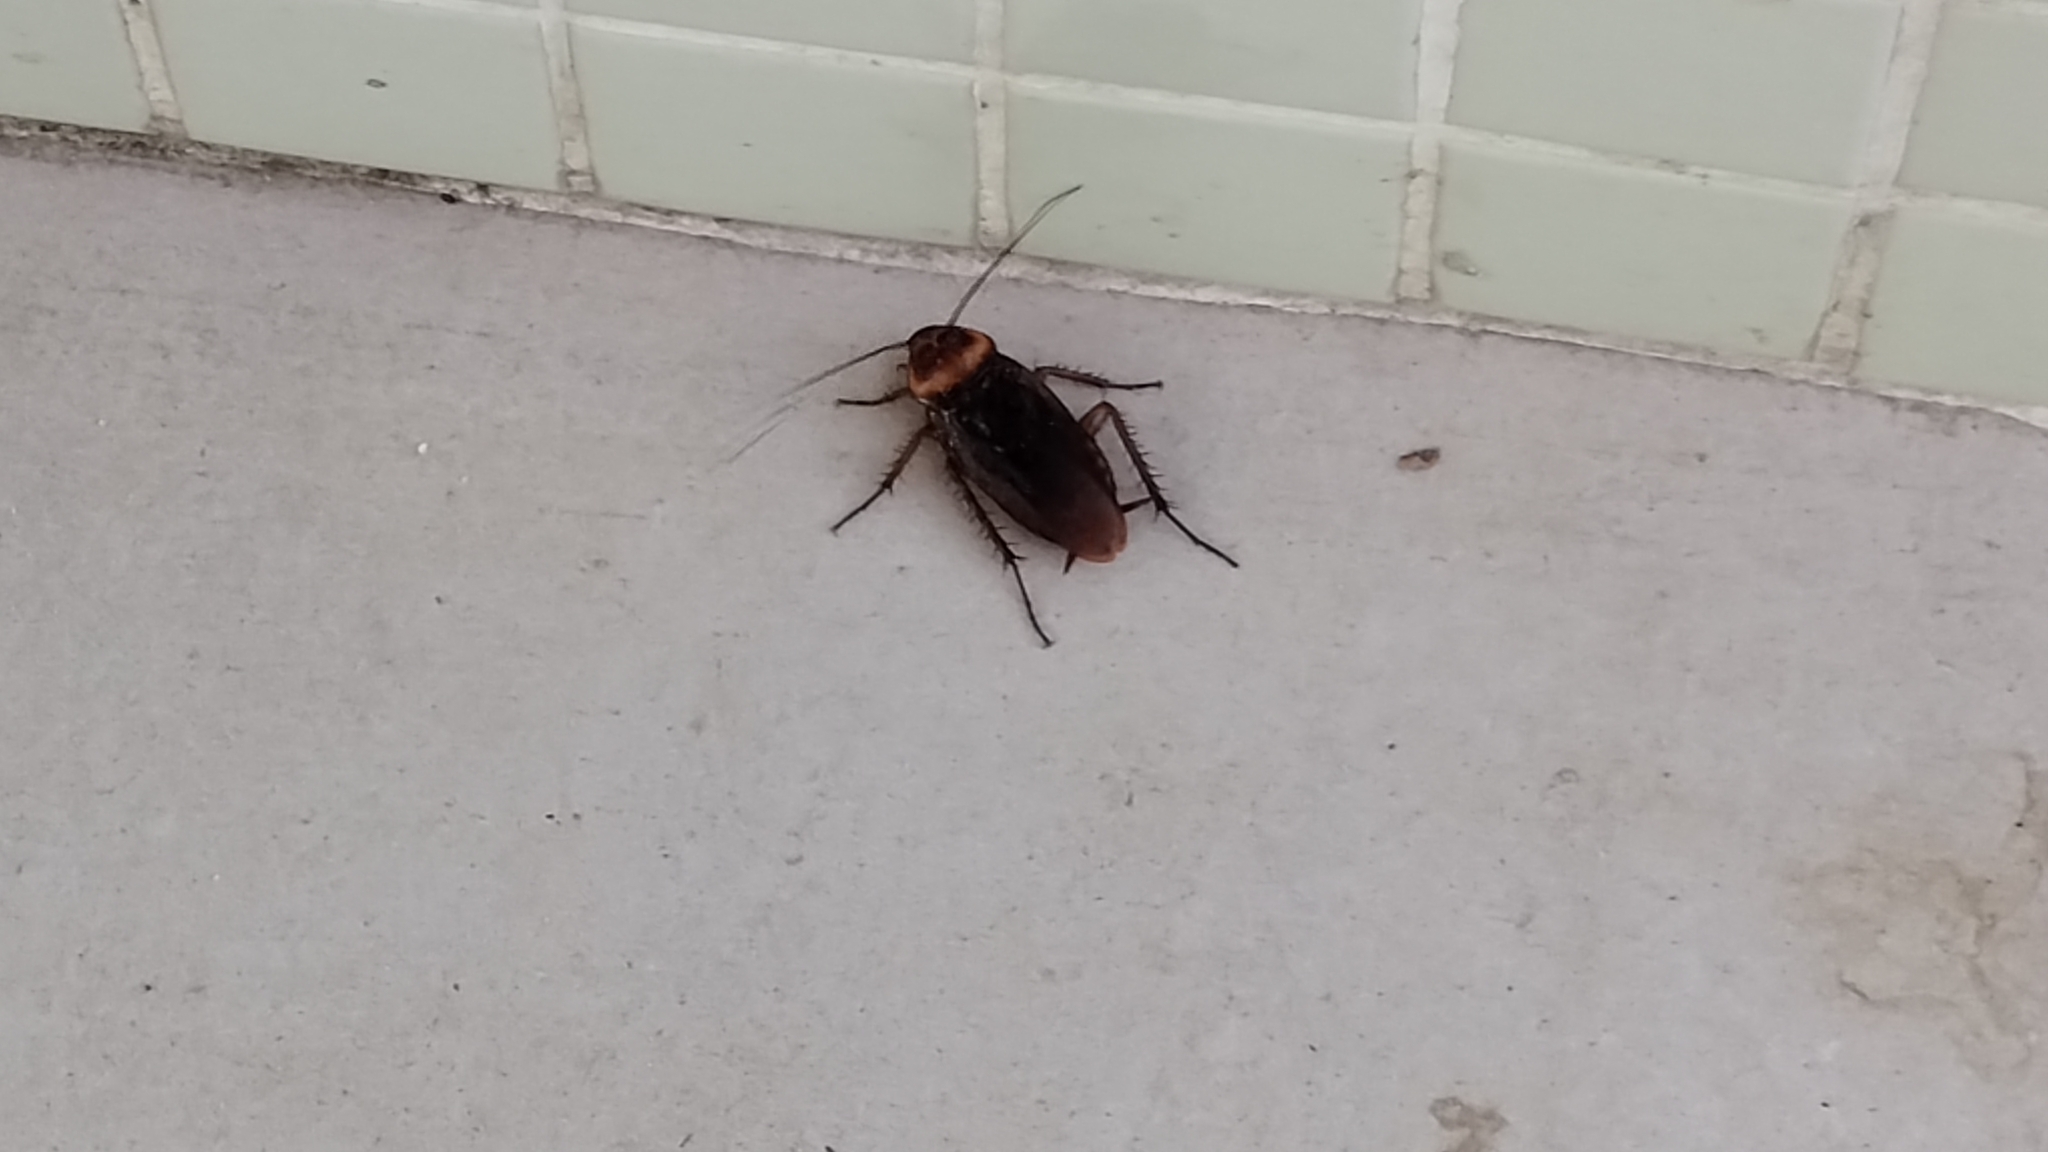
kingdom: Animalia
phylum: Arthropoda
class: Insecta
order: Blattodea
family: Blattidae
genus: Periplaneta
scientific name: Periplaneta americana
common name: American cockroach
